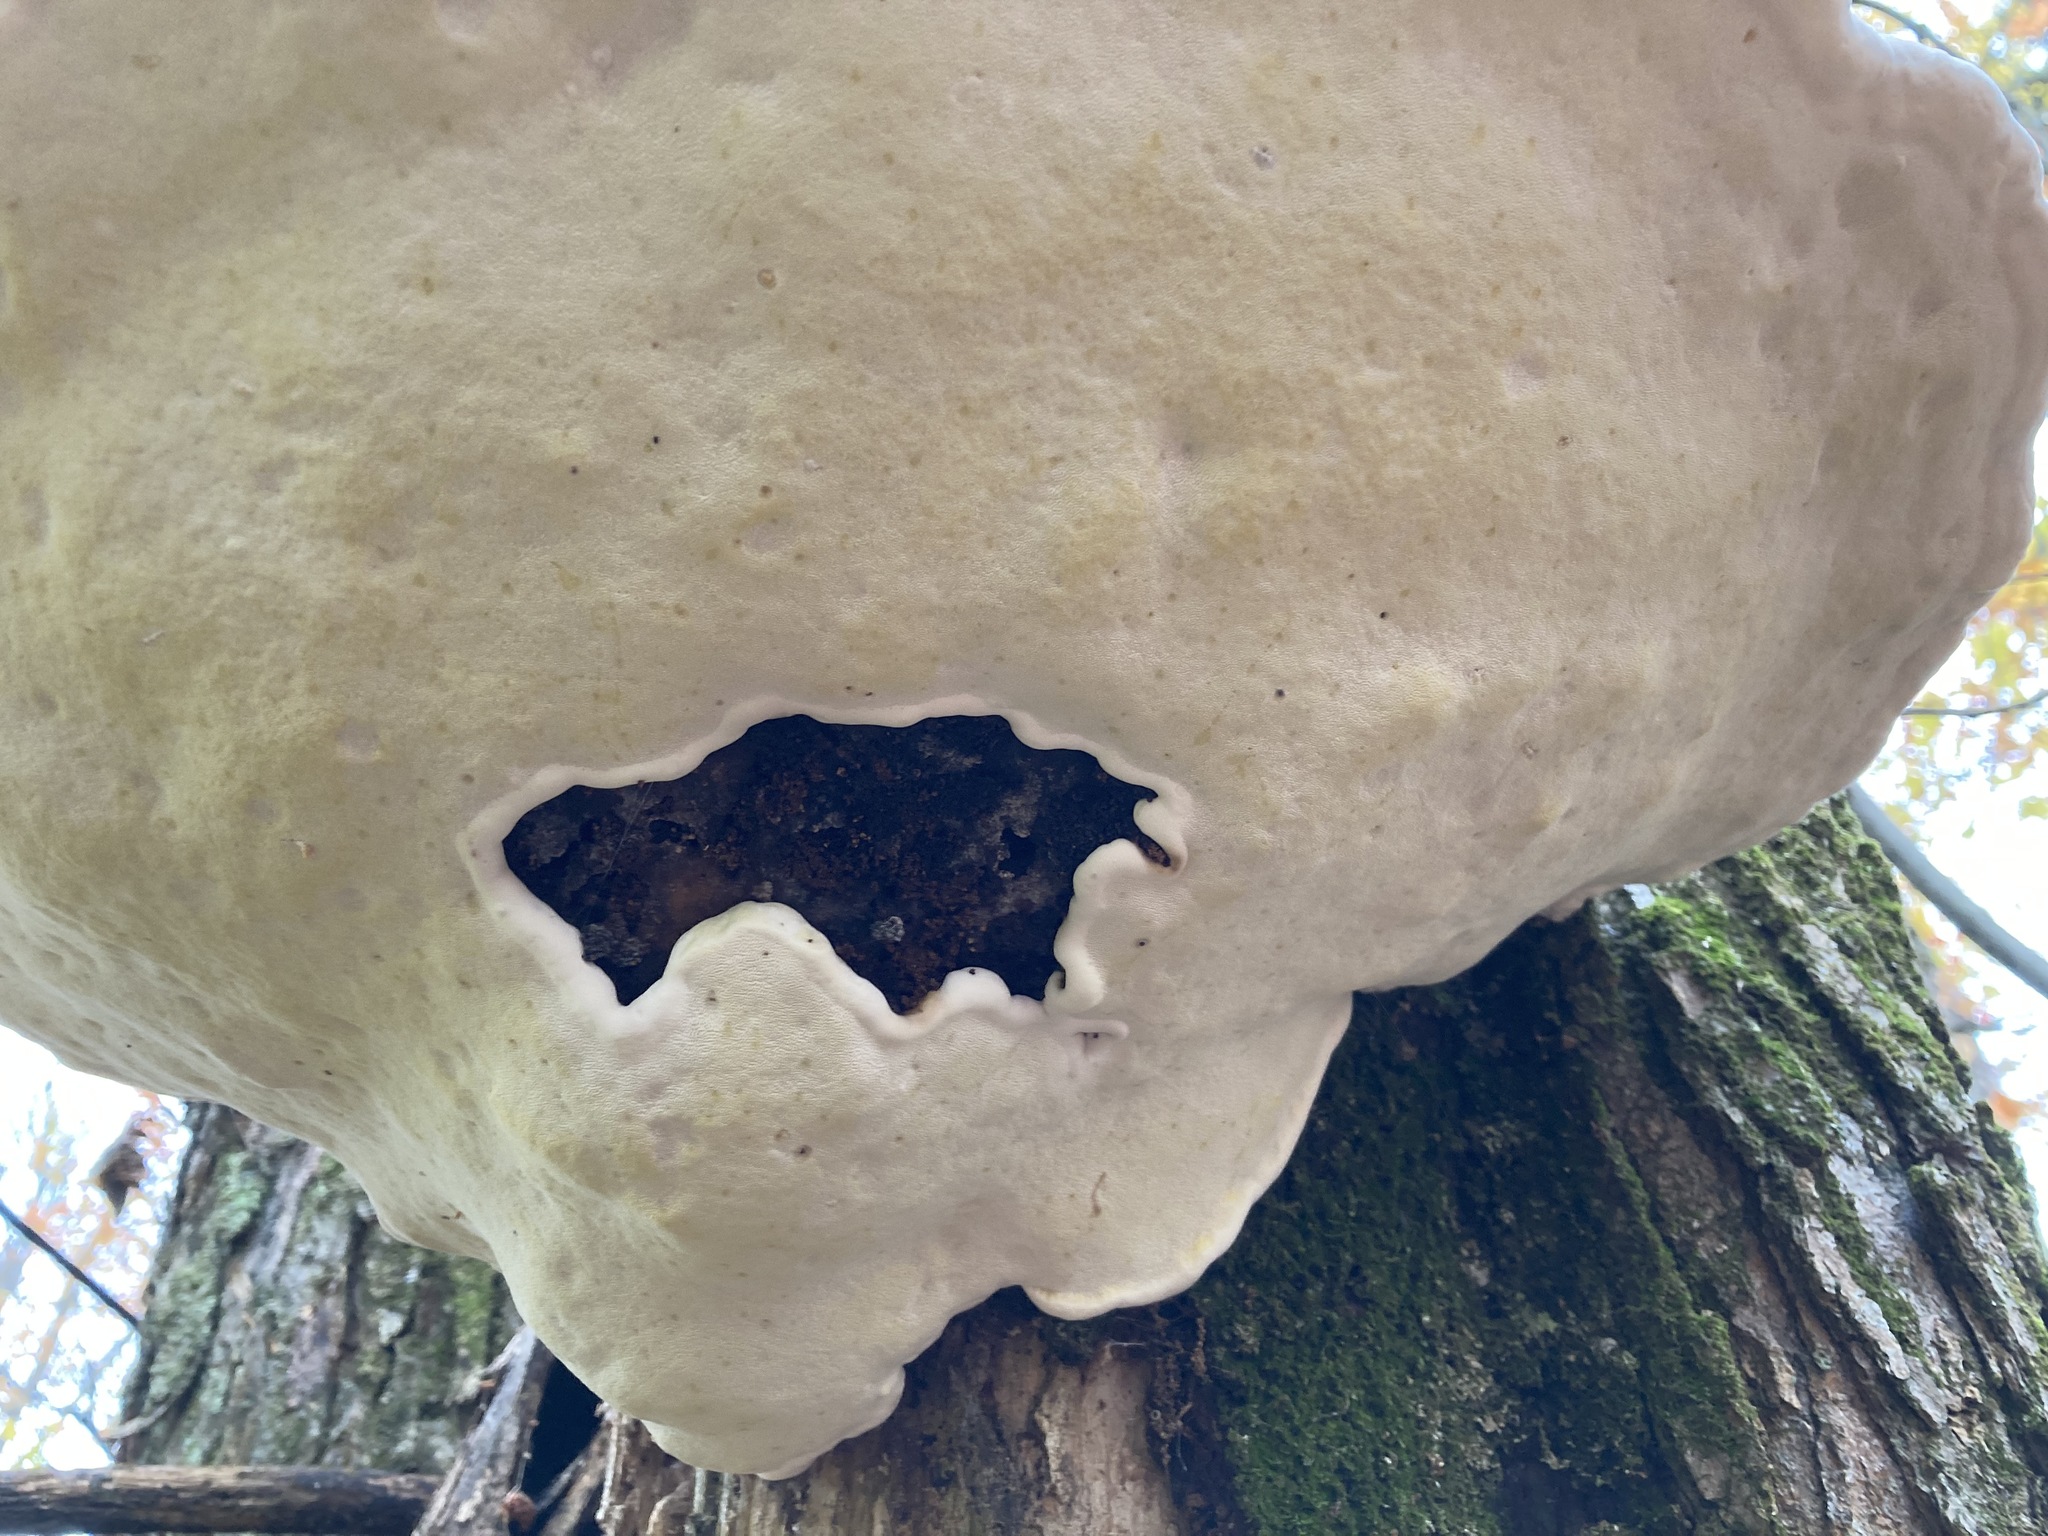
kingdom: Fungi
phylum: Basidiomycota
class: Agaricomycetes
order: Polyporales
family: Fomitopsidaceae
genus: Fomitopsis
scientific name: Fomitopsis ochracea
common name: American brown fomitopsis
